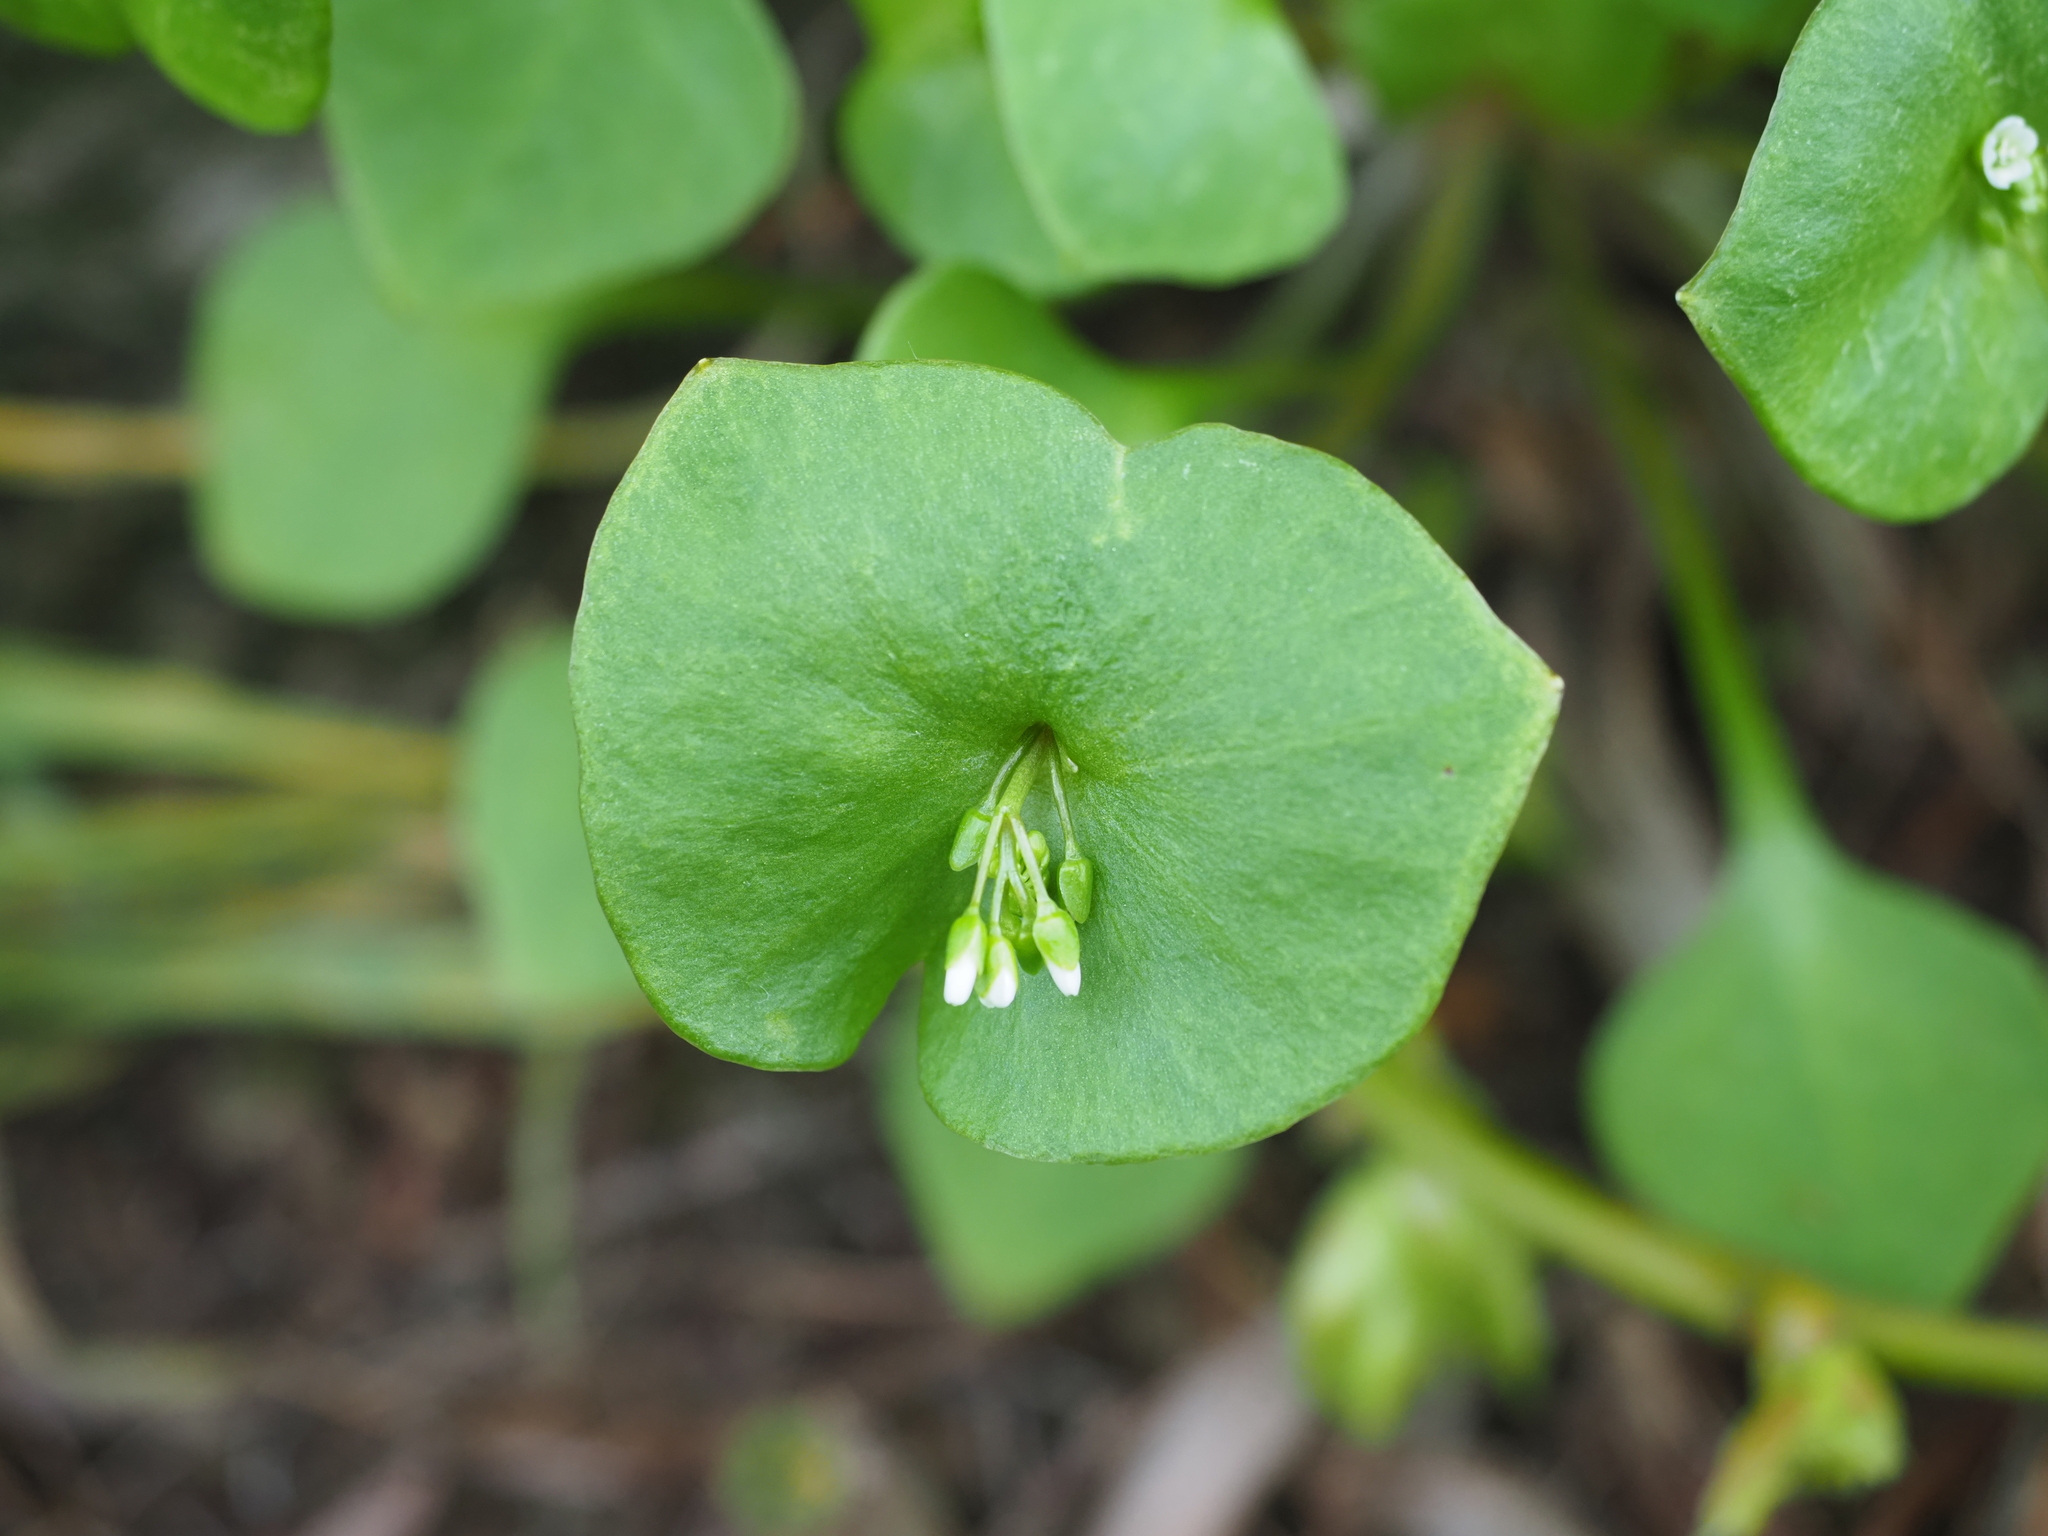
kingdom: Plantae
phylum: Tracheophyta
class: Magnoliopsida
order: Caryophyllales
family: Montiaceae
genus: Claytonia
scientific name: Claytonia perfoliata
